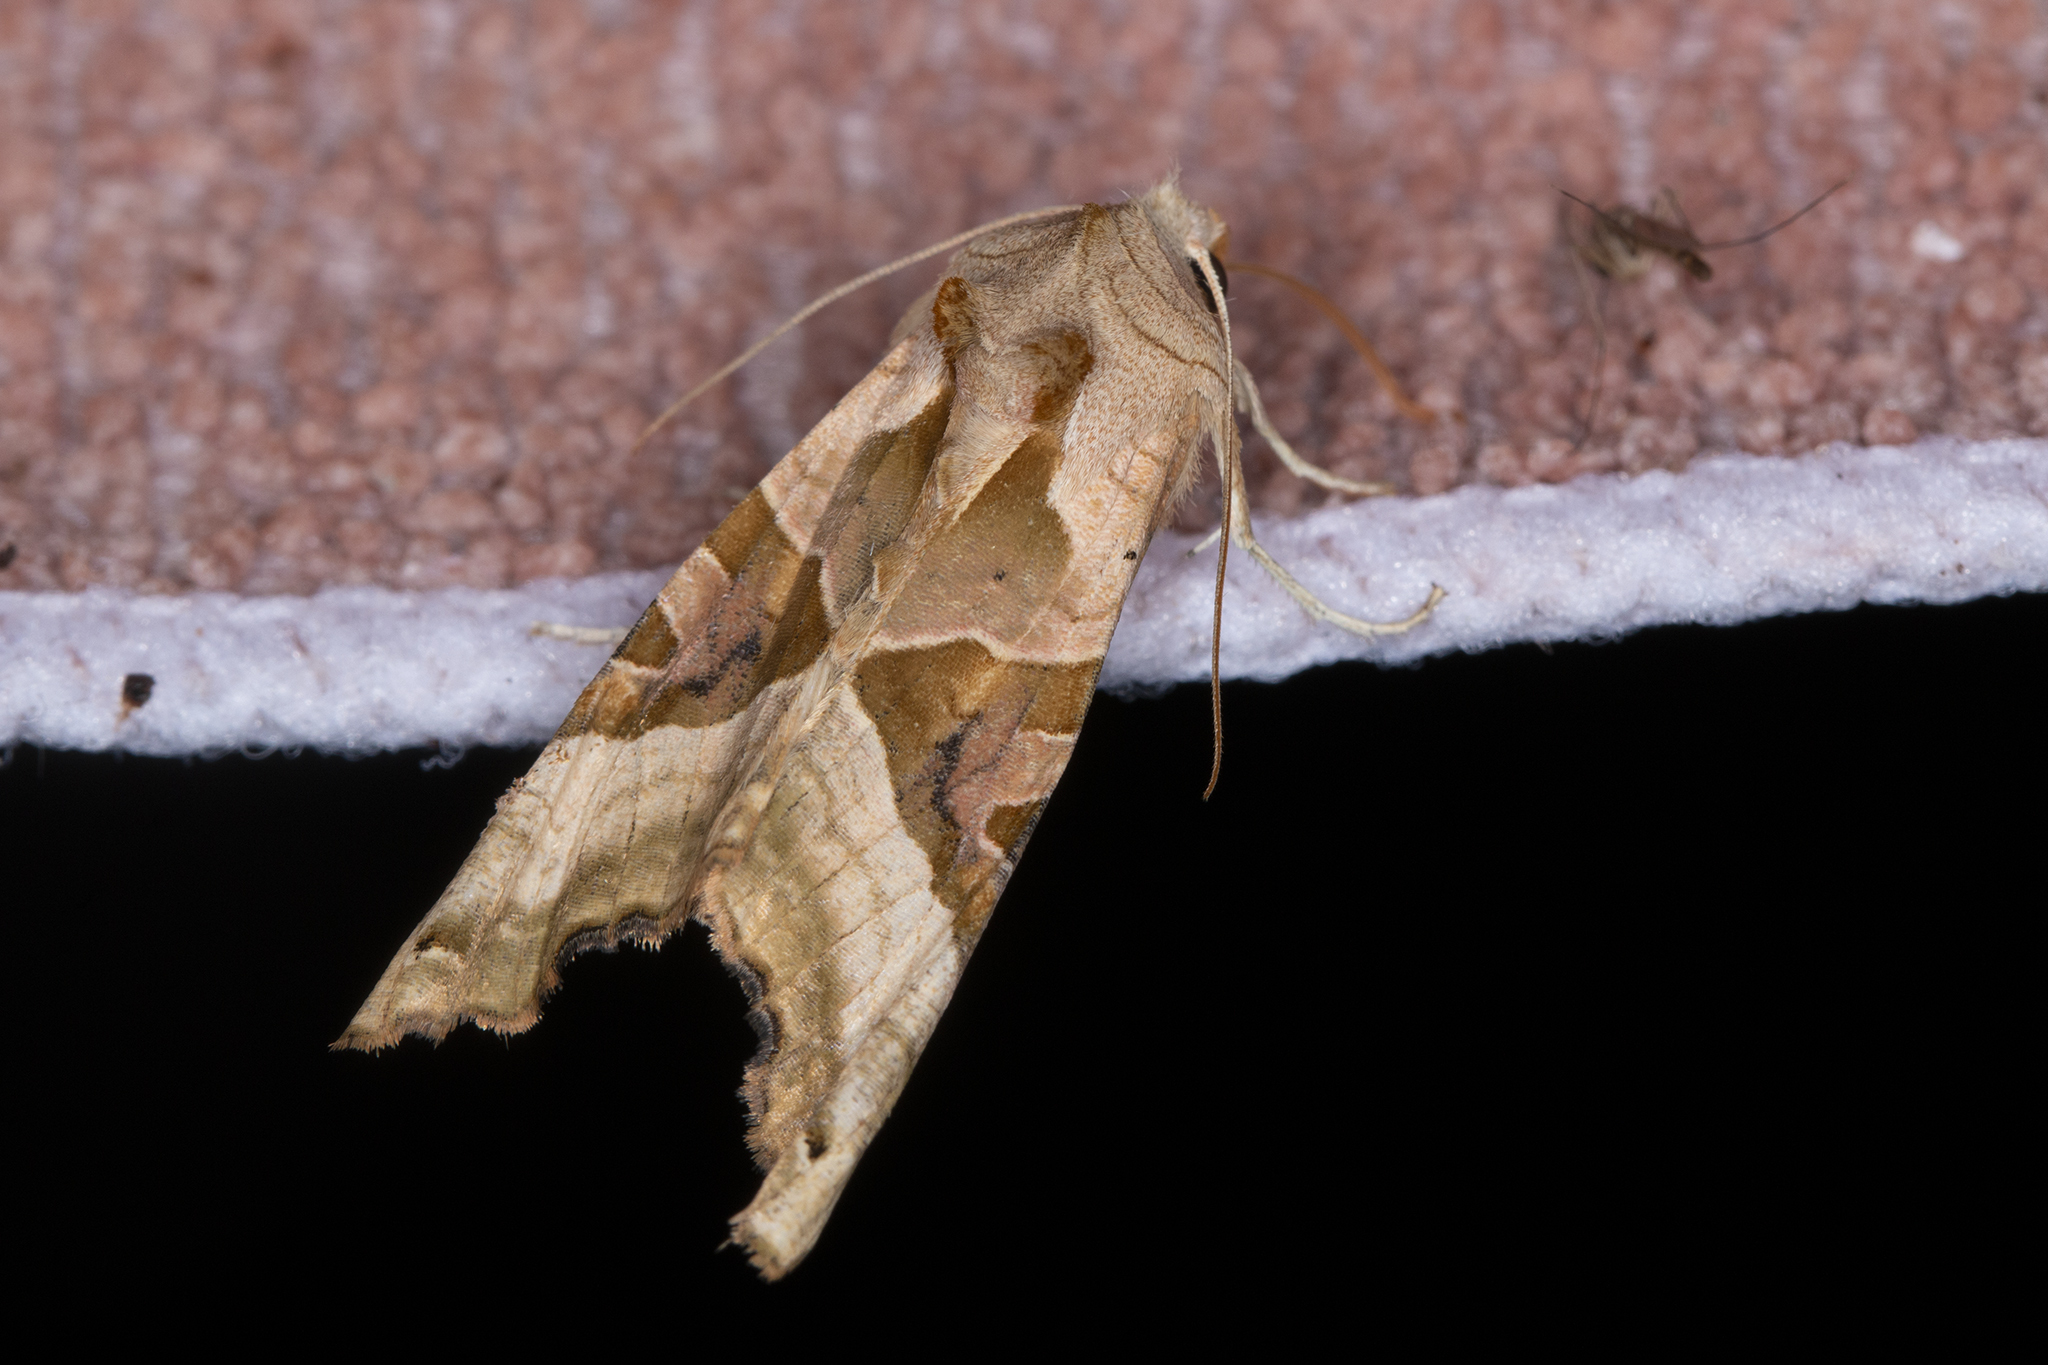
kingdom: Animalia
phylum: Arthropoda
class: Insecta
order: Lepidoptera
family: Noctuidae
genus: Phlogophora
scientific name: Phlogophora meticulosa
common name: Angle shades
